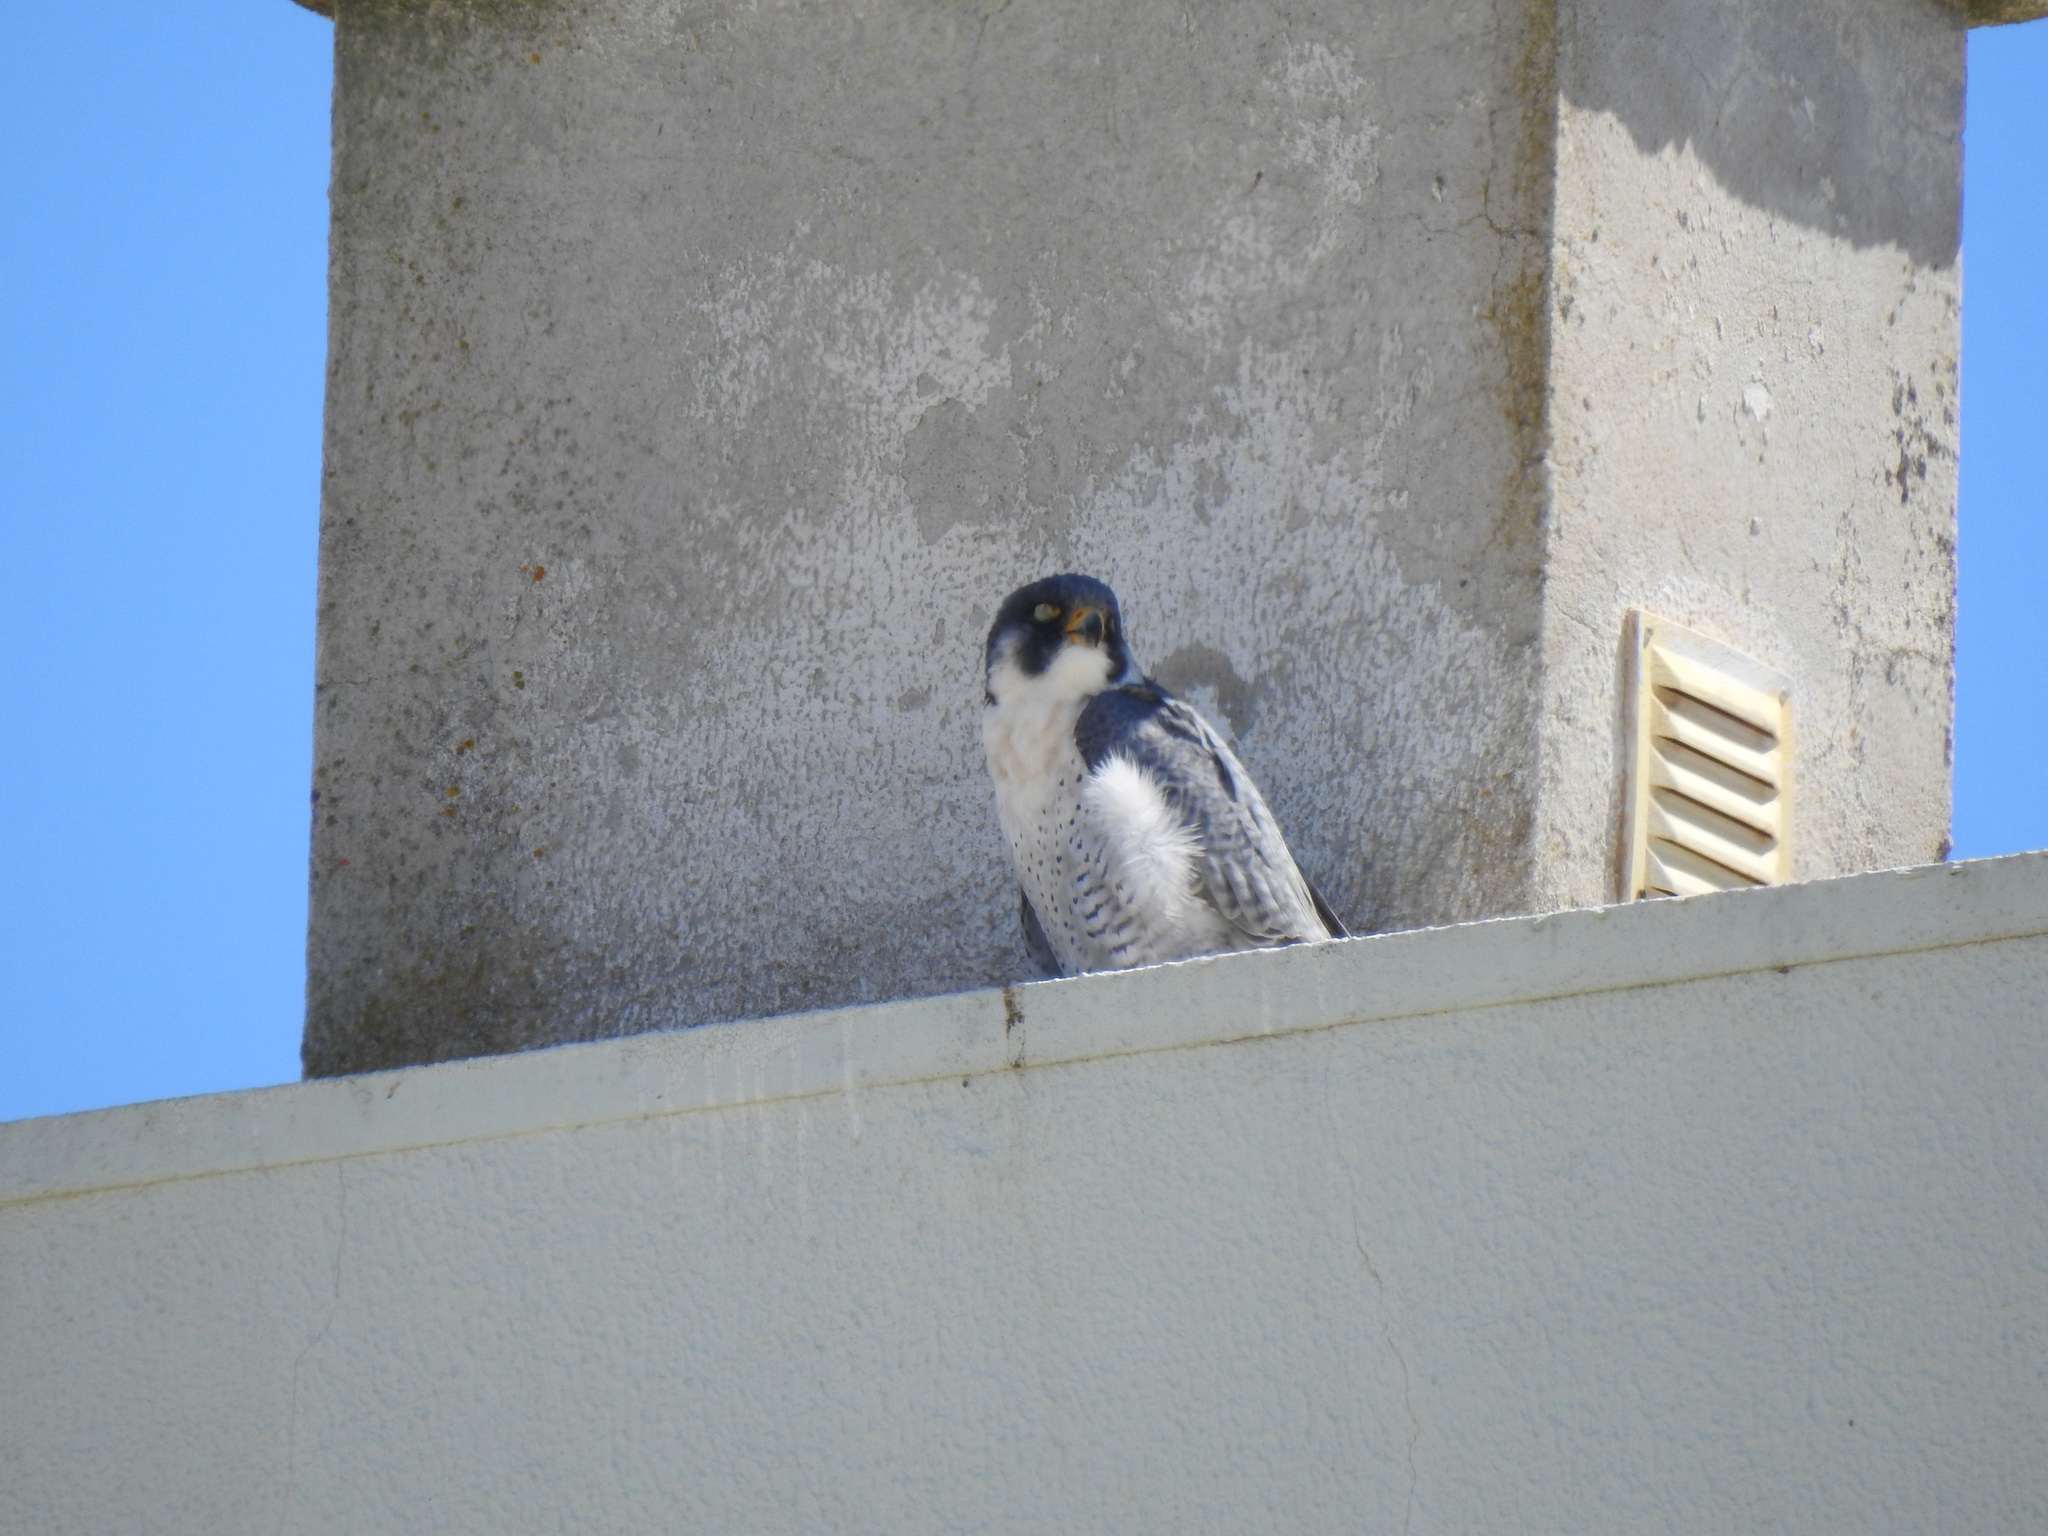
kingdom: Animalia
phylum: Chordata
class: Aves
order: Falconiformes
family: Falconidae
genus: Falco
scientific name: Falco peregrinus
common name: Peregrine falcon
